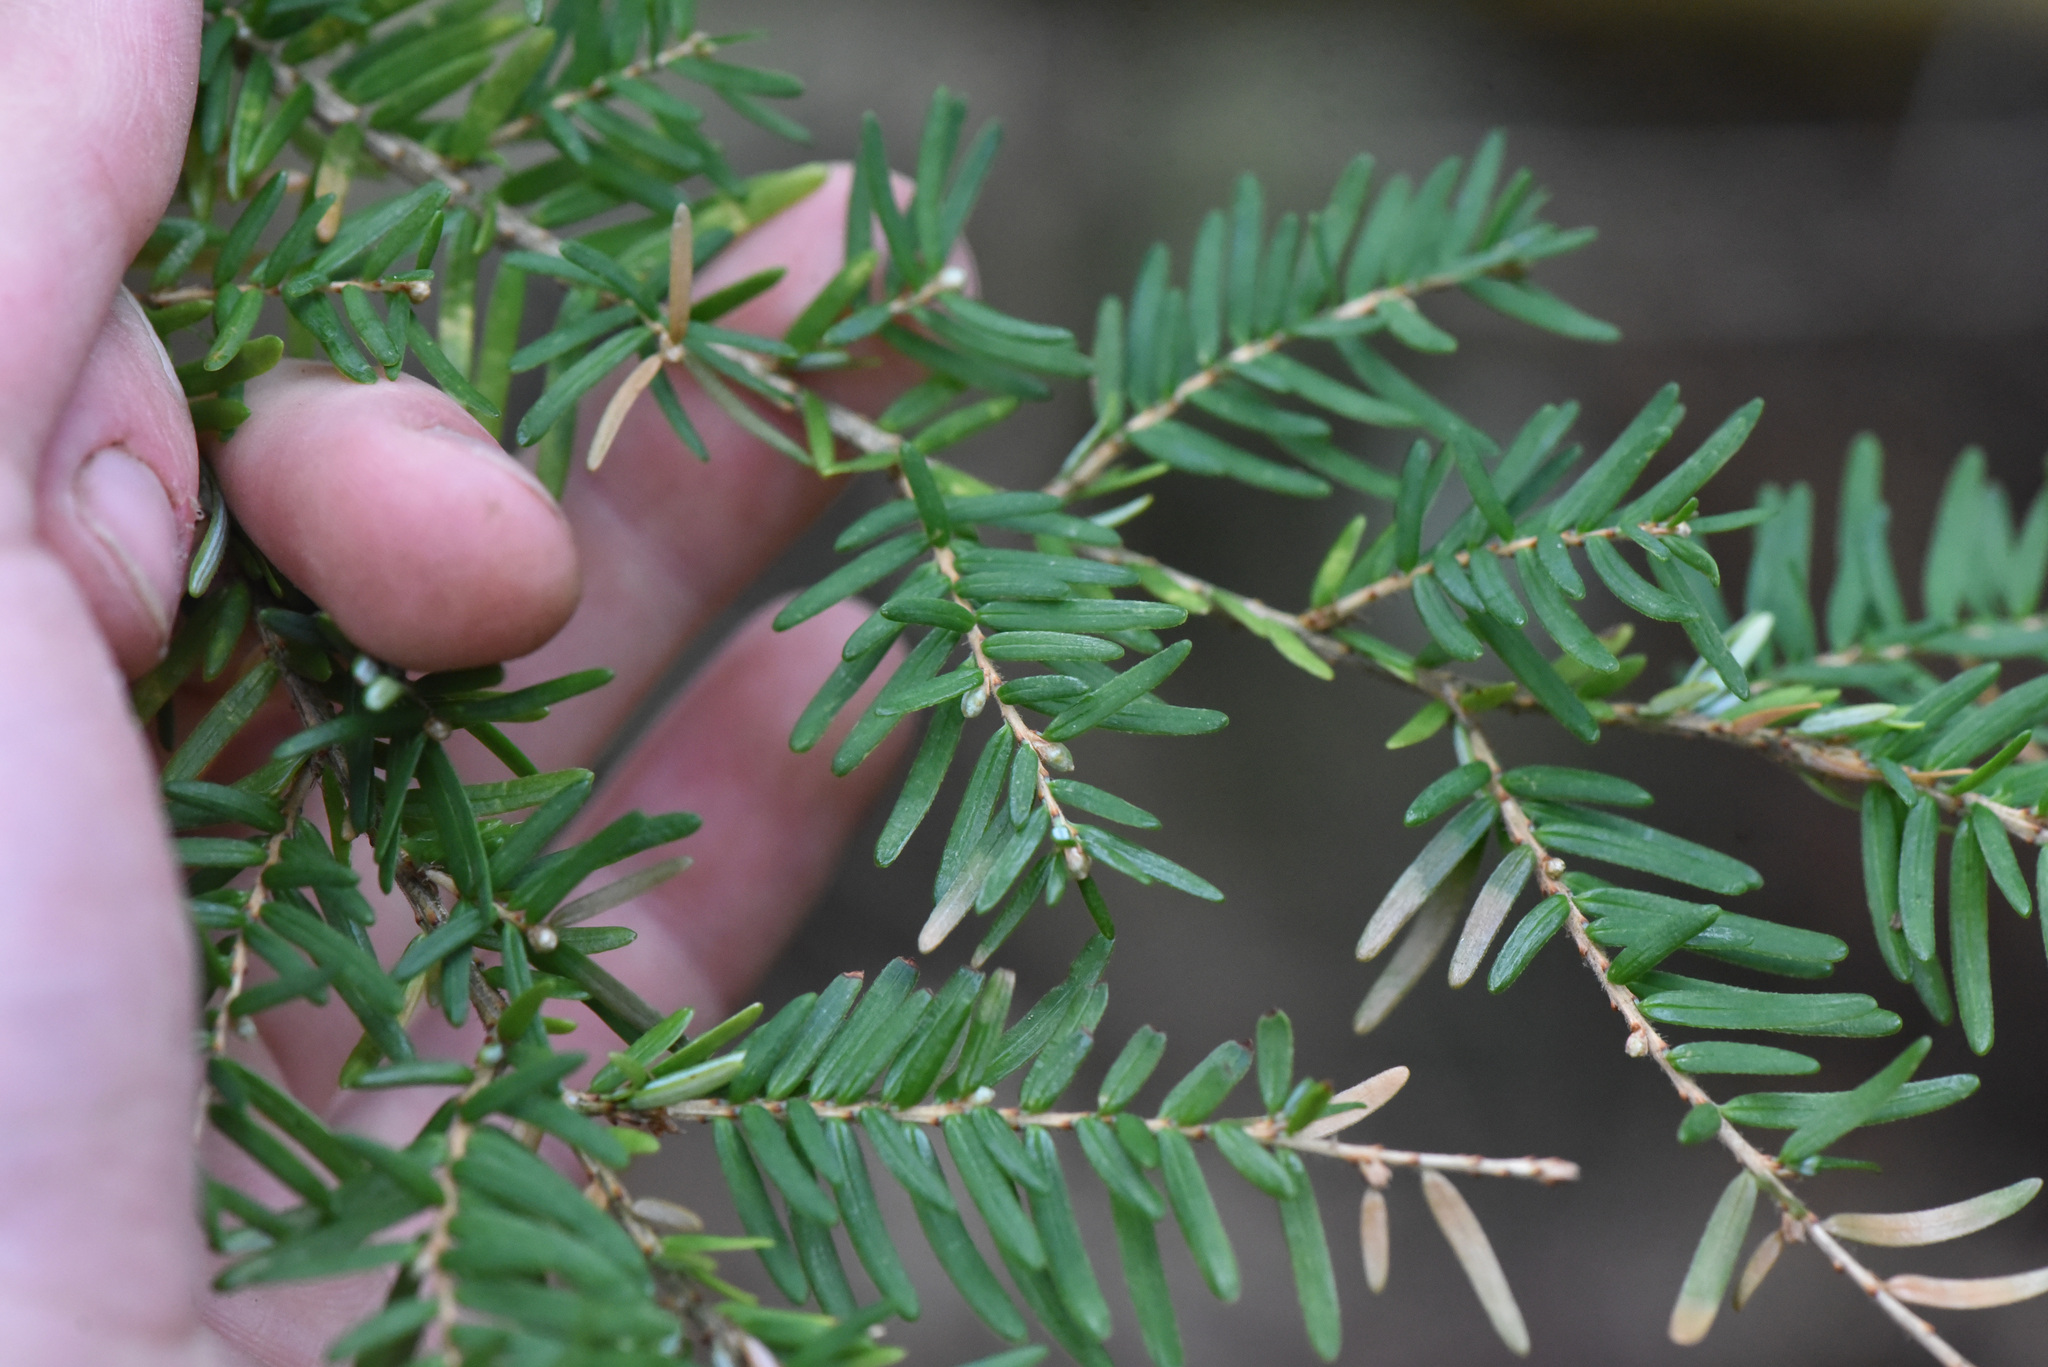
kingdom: Plantae
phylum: Tracheophyta
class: Pinopsida
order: Pinales
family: Pinaceae
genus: Tsuga
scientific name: Tsuga heterophylla
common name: Western hemlock
